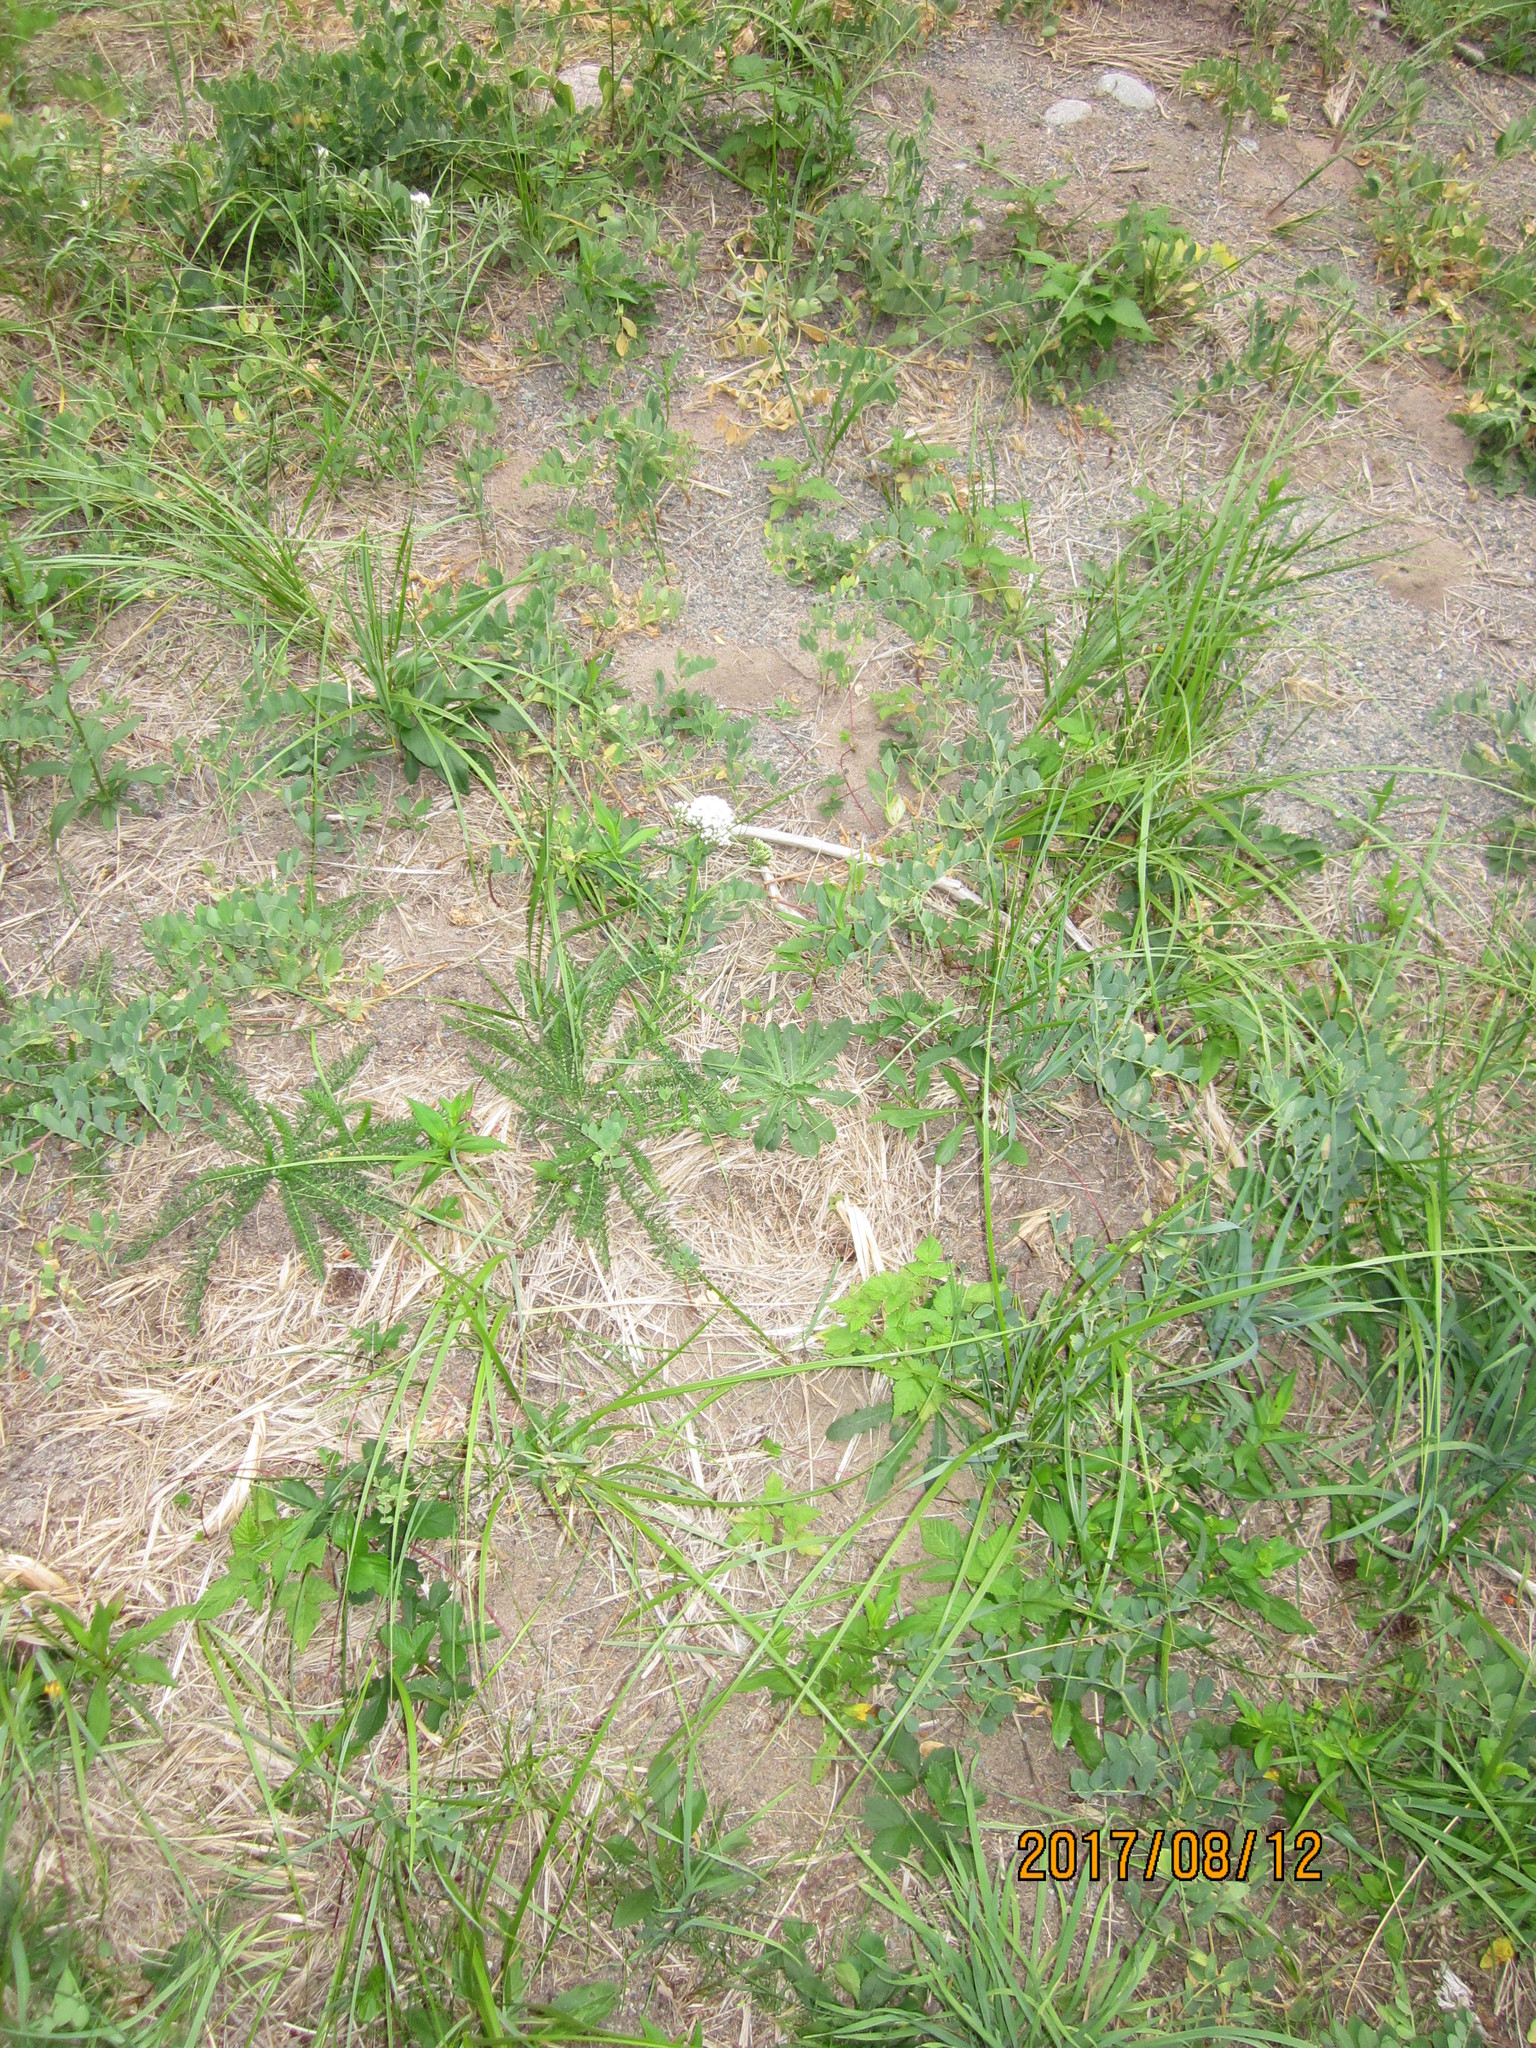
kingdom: Plantae
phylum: Tracheophyta
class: Magnoliopsida
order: Asterales
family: Asteraceae
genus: Achillea
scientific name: Achillea millefolium
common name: Yarrow
